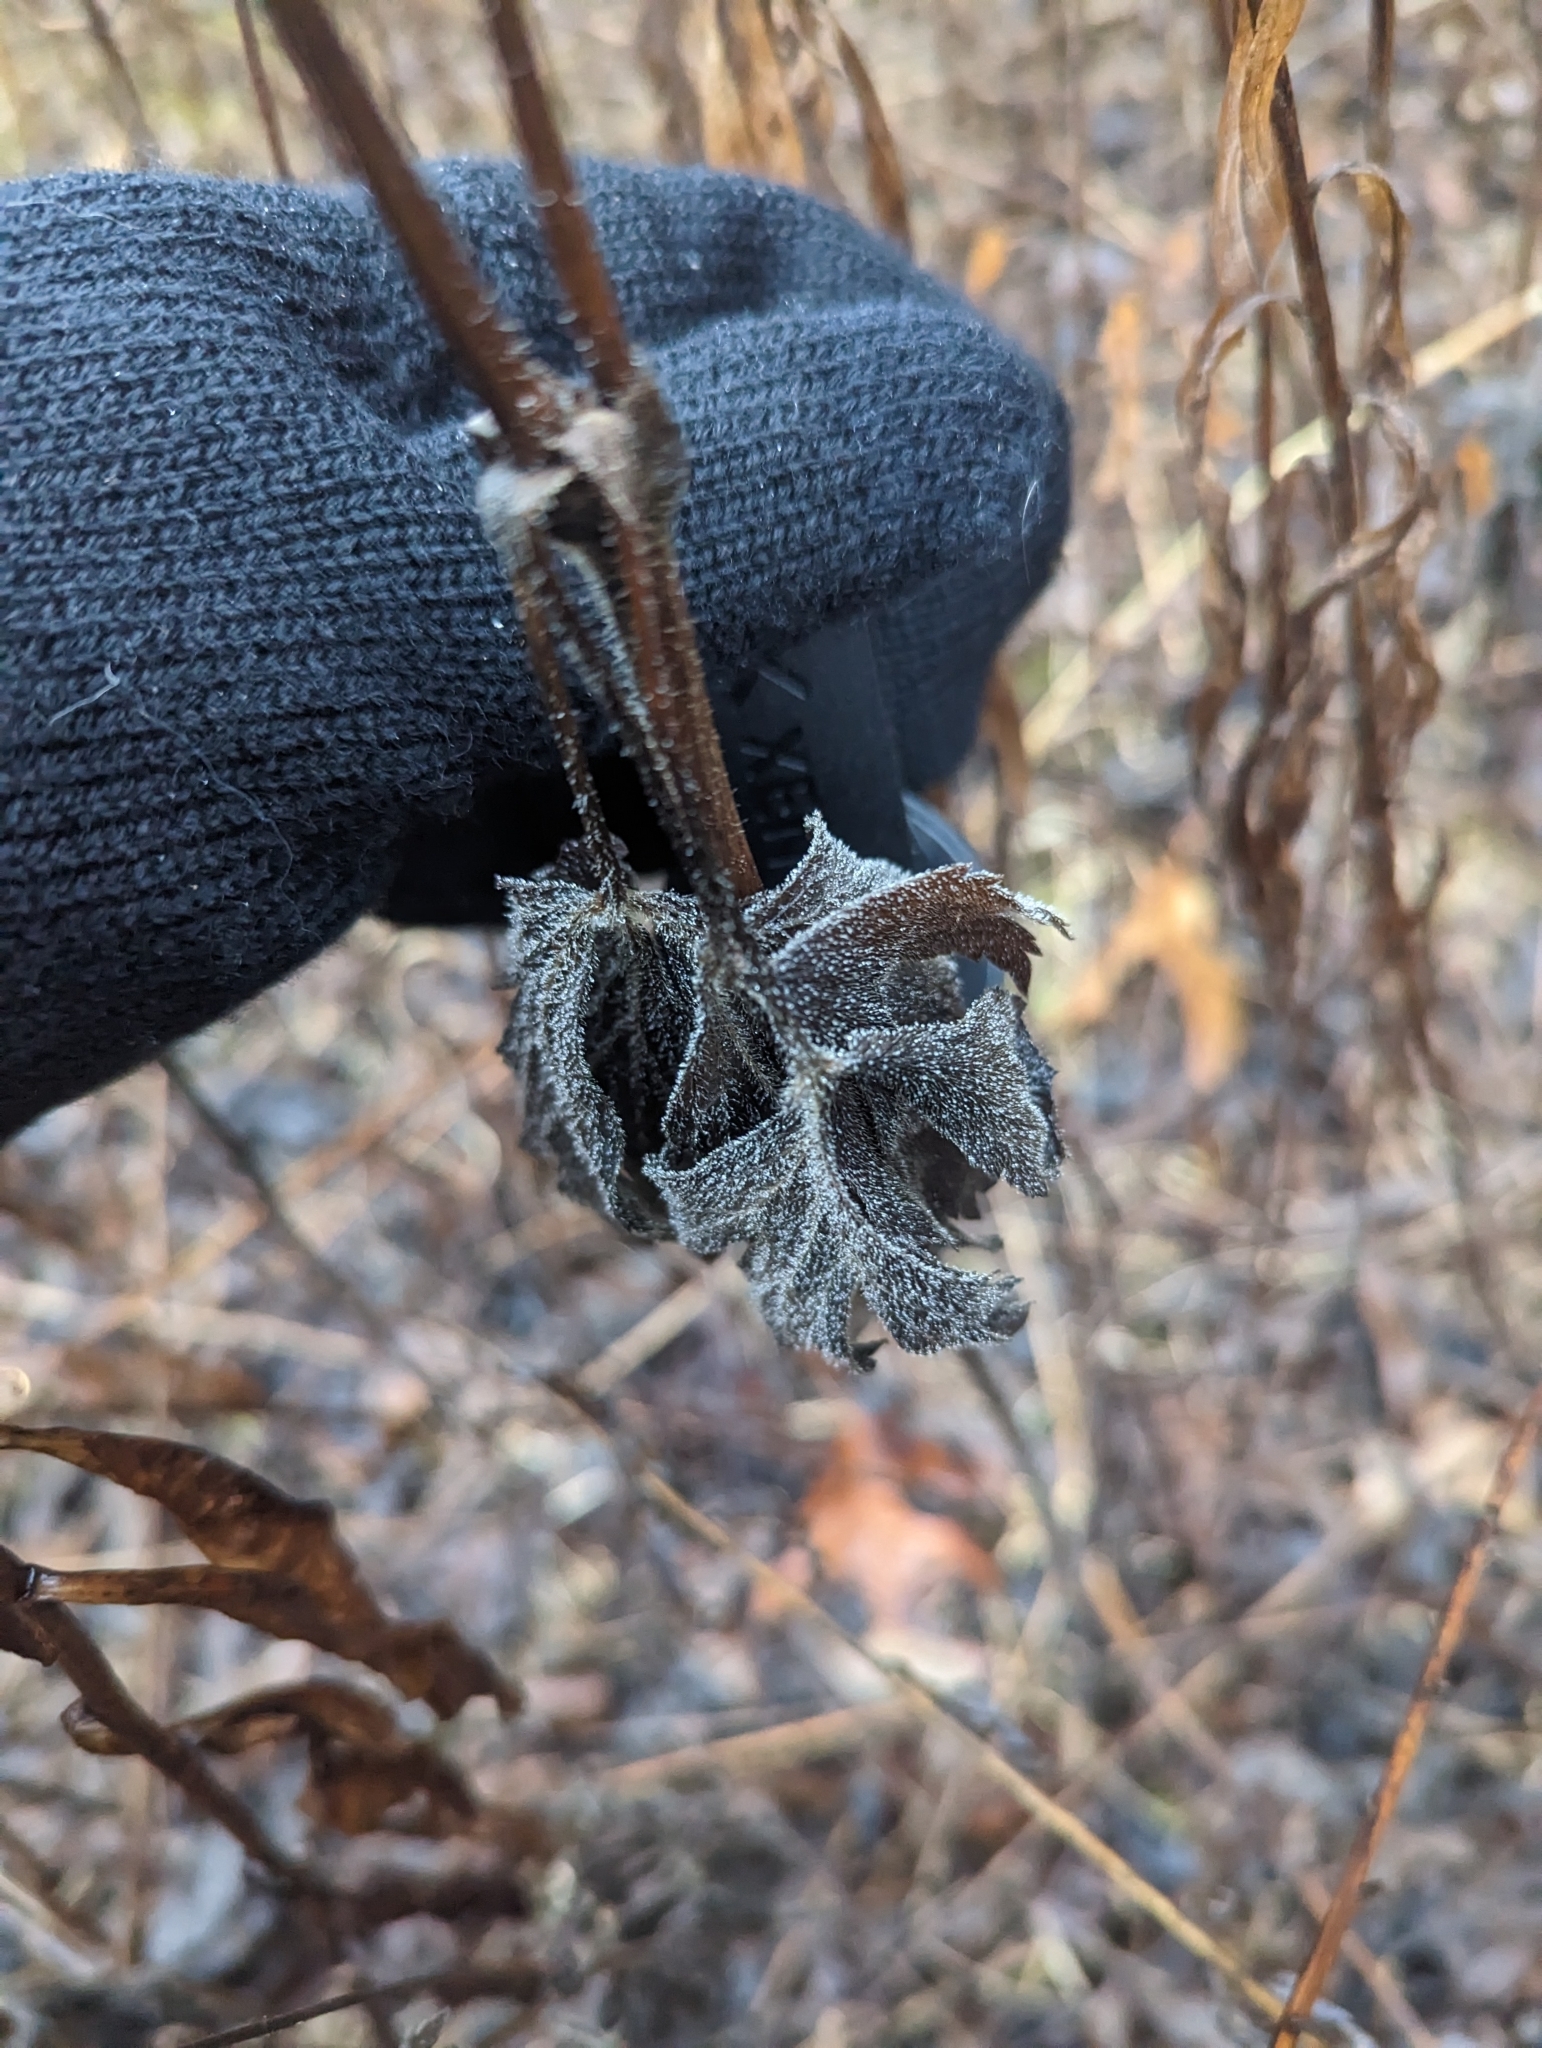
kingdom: Plantae
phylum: Tracheophyta
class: Magnoliopsida
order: Ranunculales
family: Ranunculaceae
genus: Anemone
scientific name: Anemone virginiana
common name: Tall anemone
